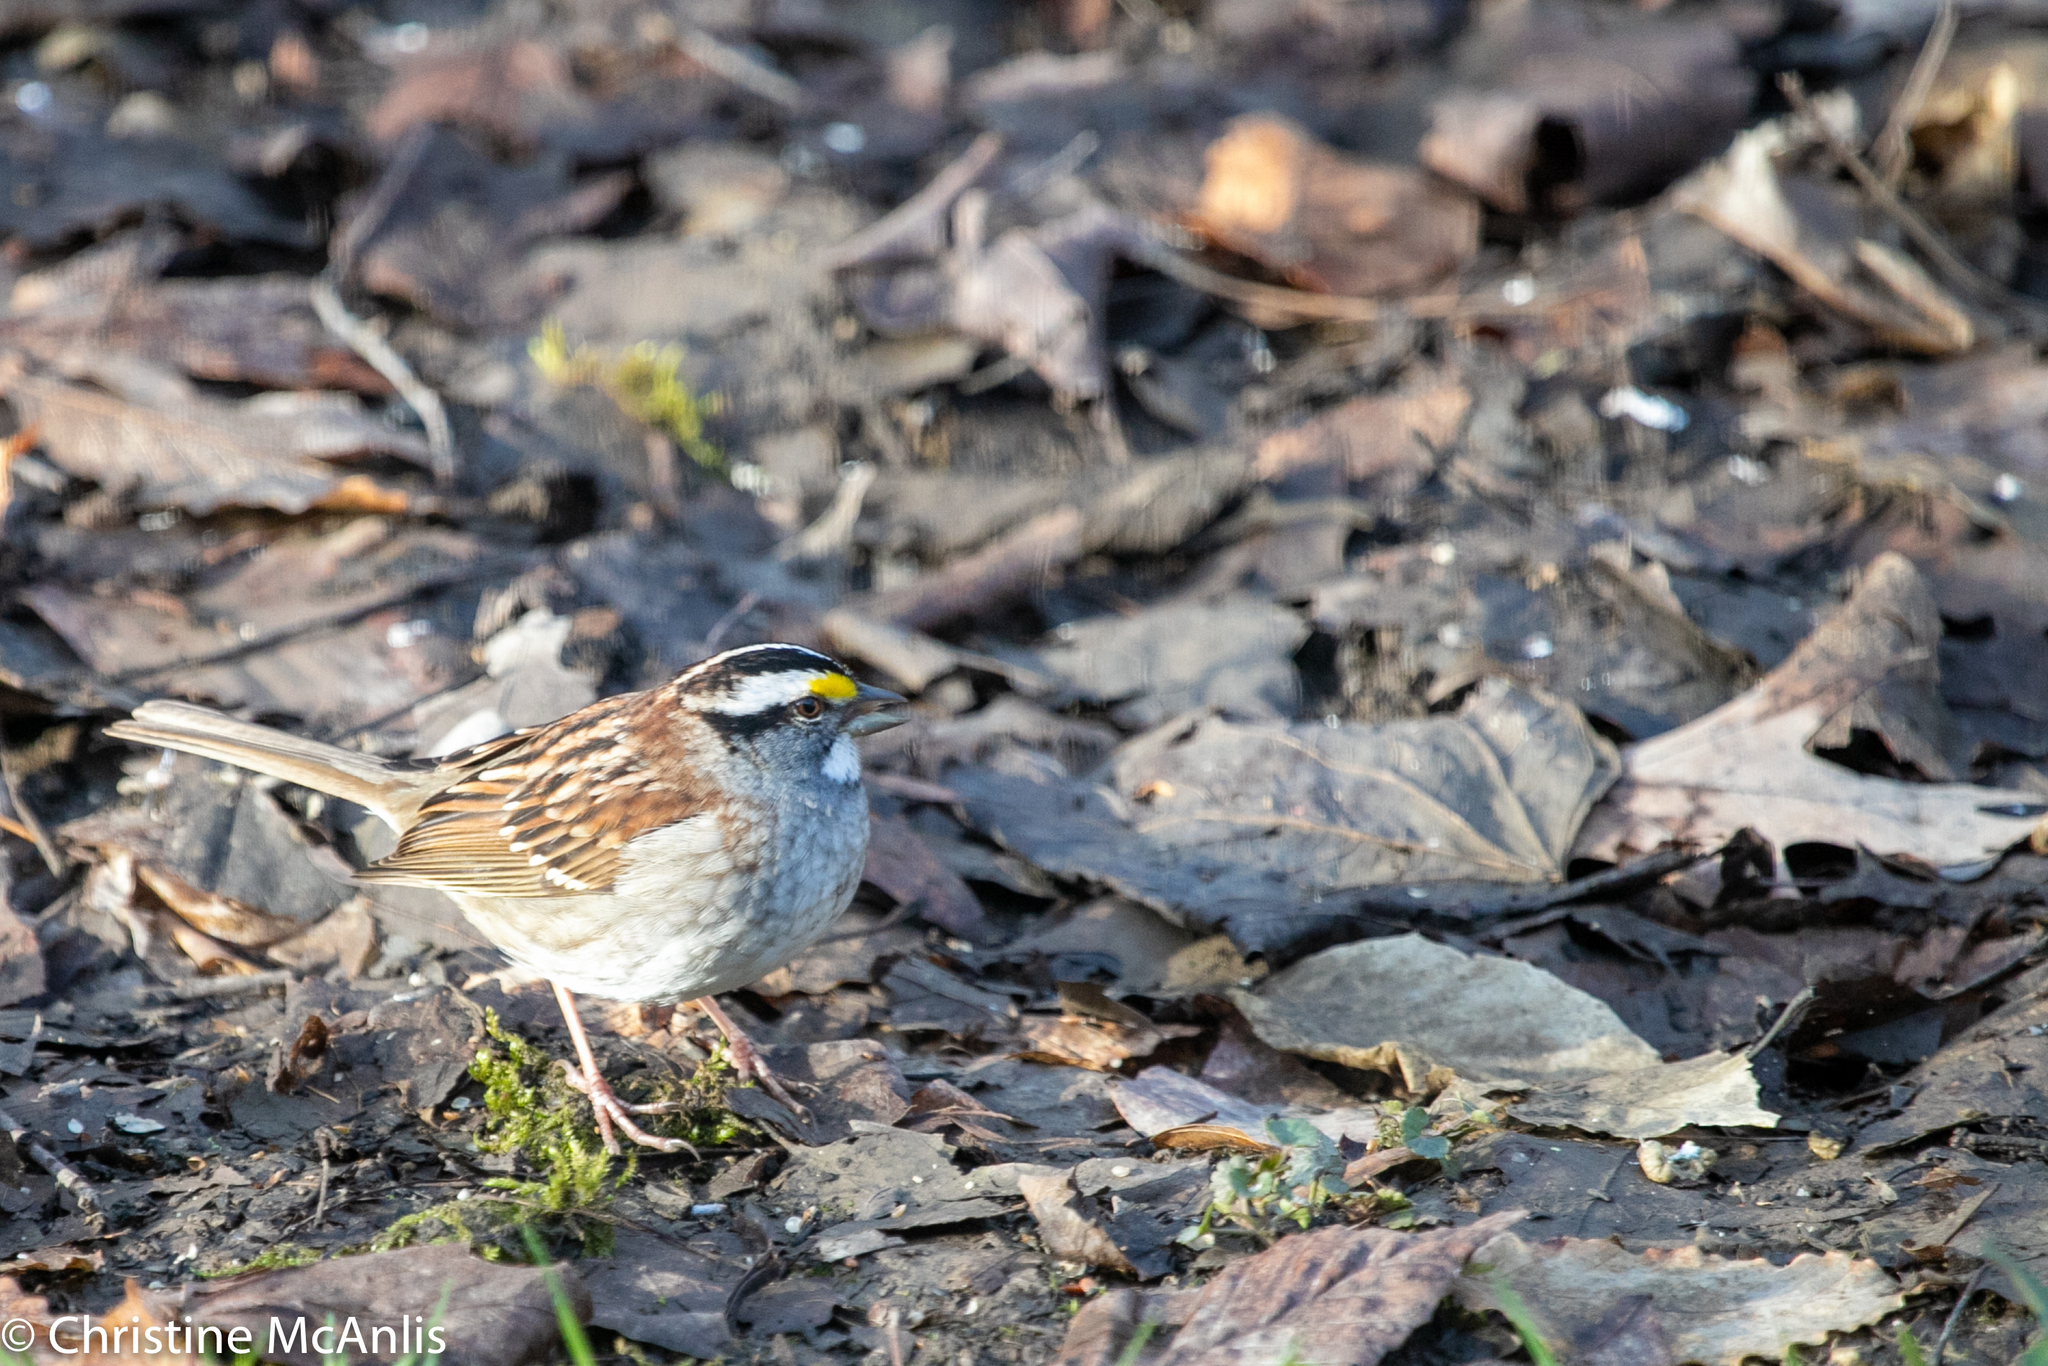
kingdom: Animalia
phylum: Chordata
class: Aves
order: Passeriformes
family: Passerellidae
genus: Zonotrichia
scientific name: Zonotrichia albicollis
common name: White-throated sparrow
